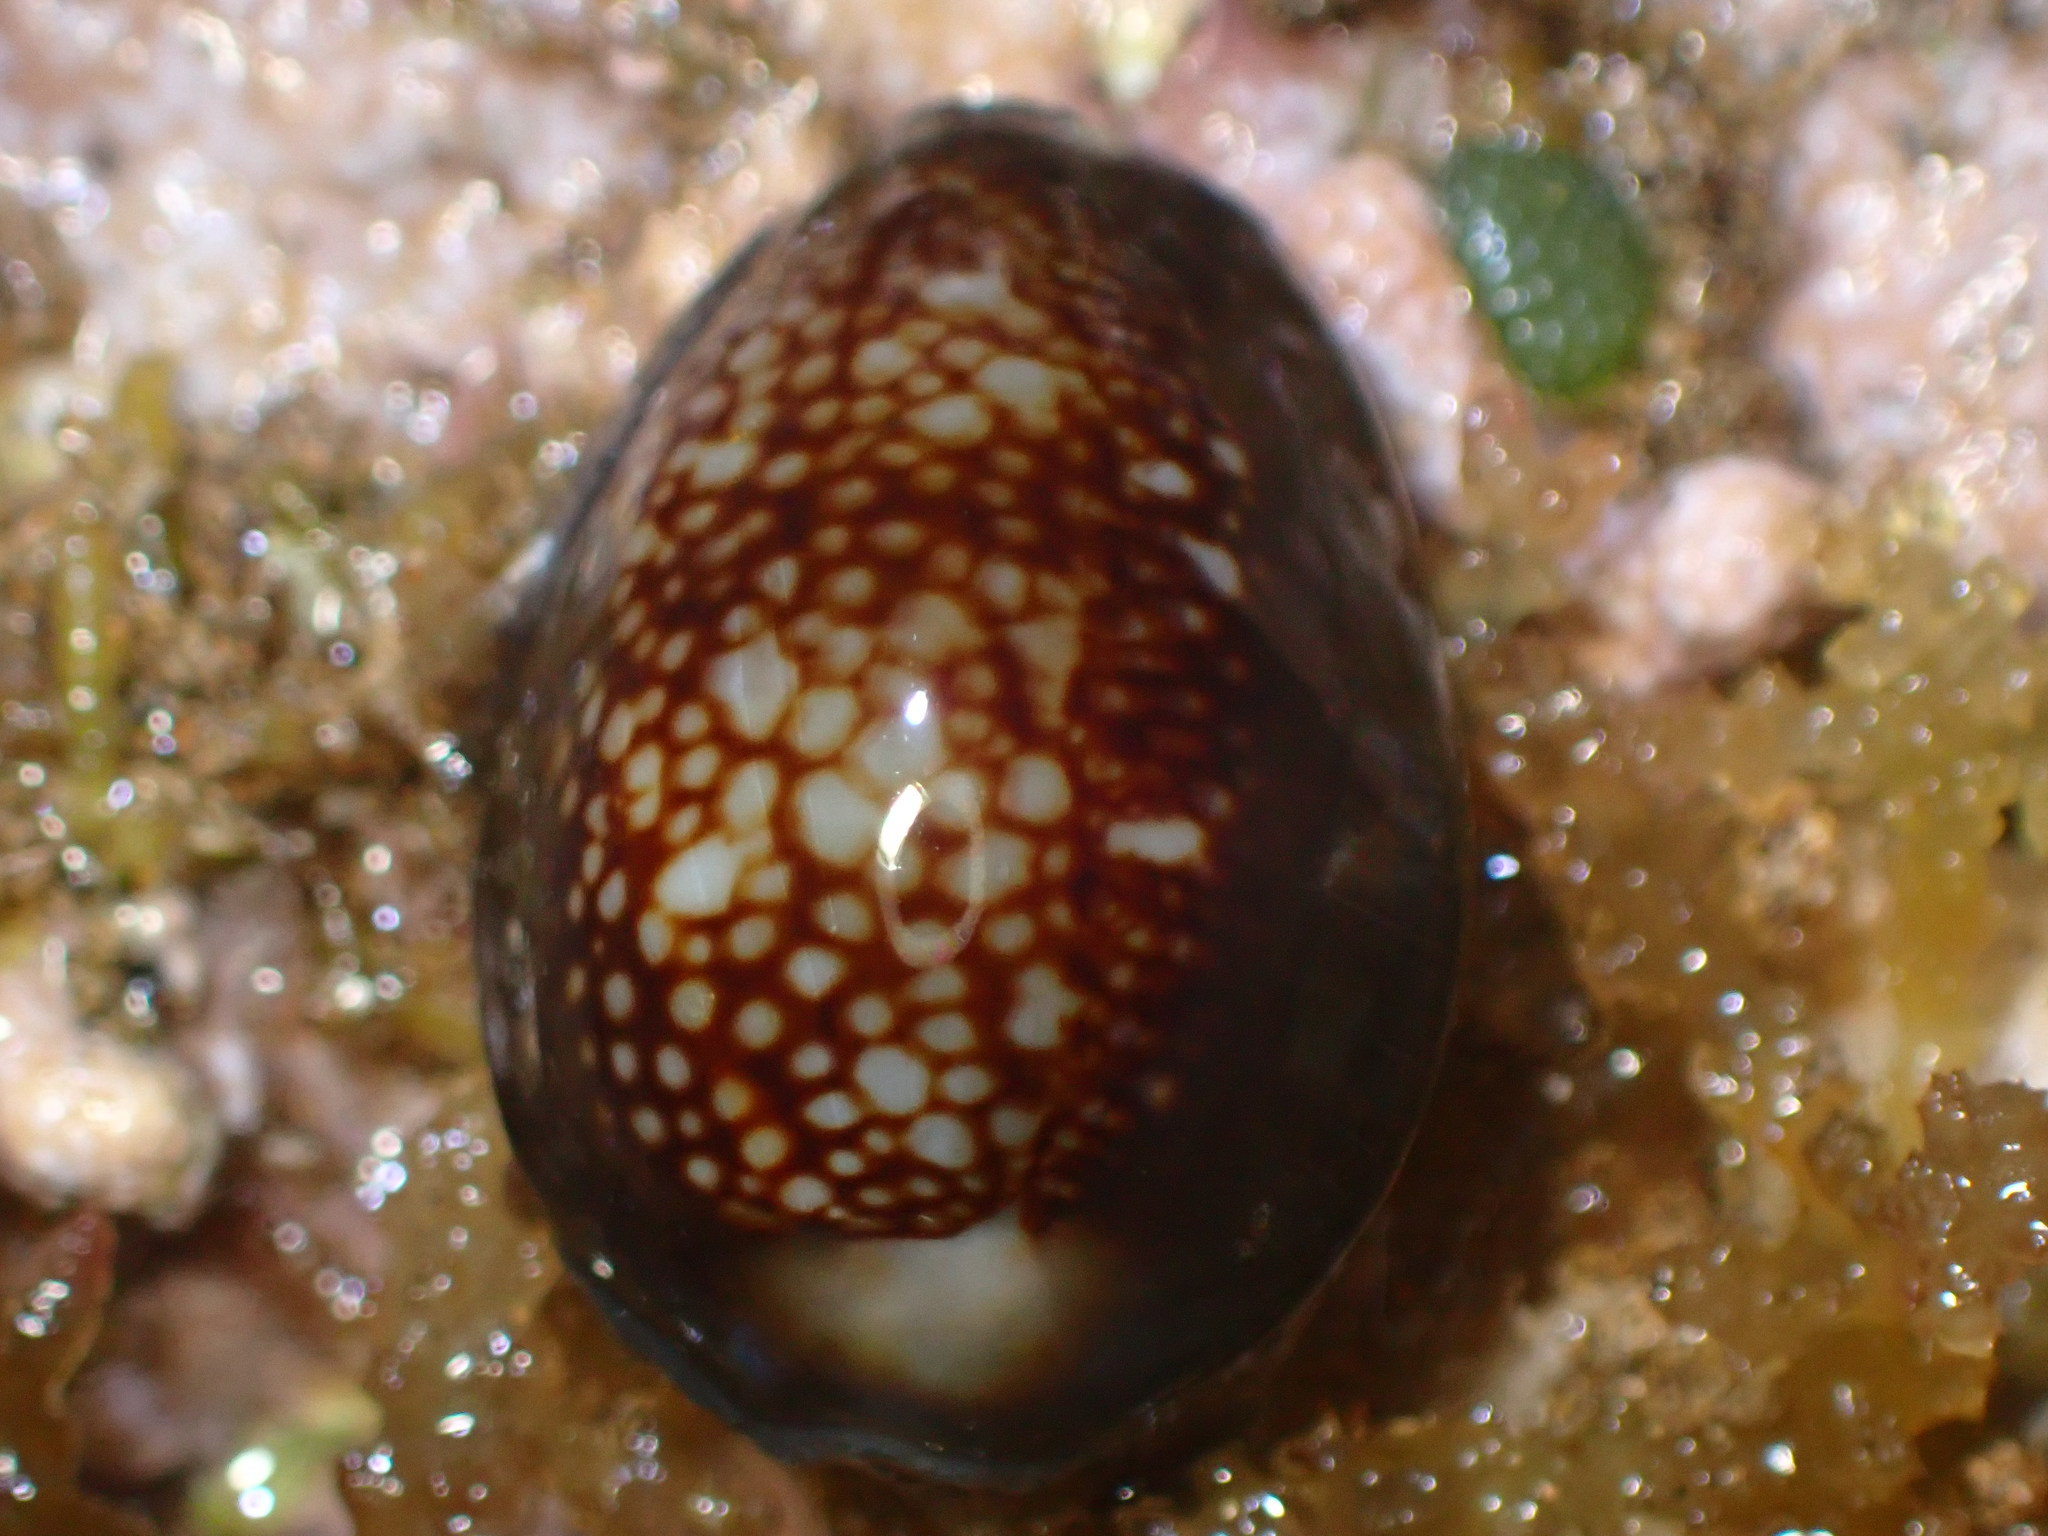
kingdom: Animalia
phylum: Mollusca
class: Gastropoda
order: Littorinimorpha
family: Cypraeidae
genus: Monetaria
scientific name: Monetaria caputophidii
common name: Snake's head cowry
